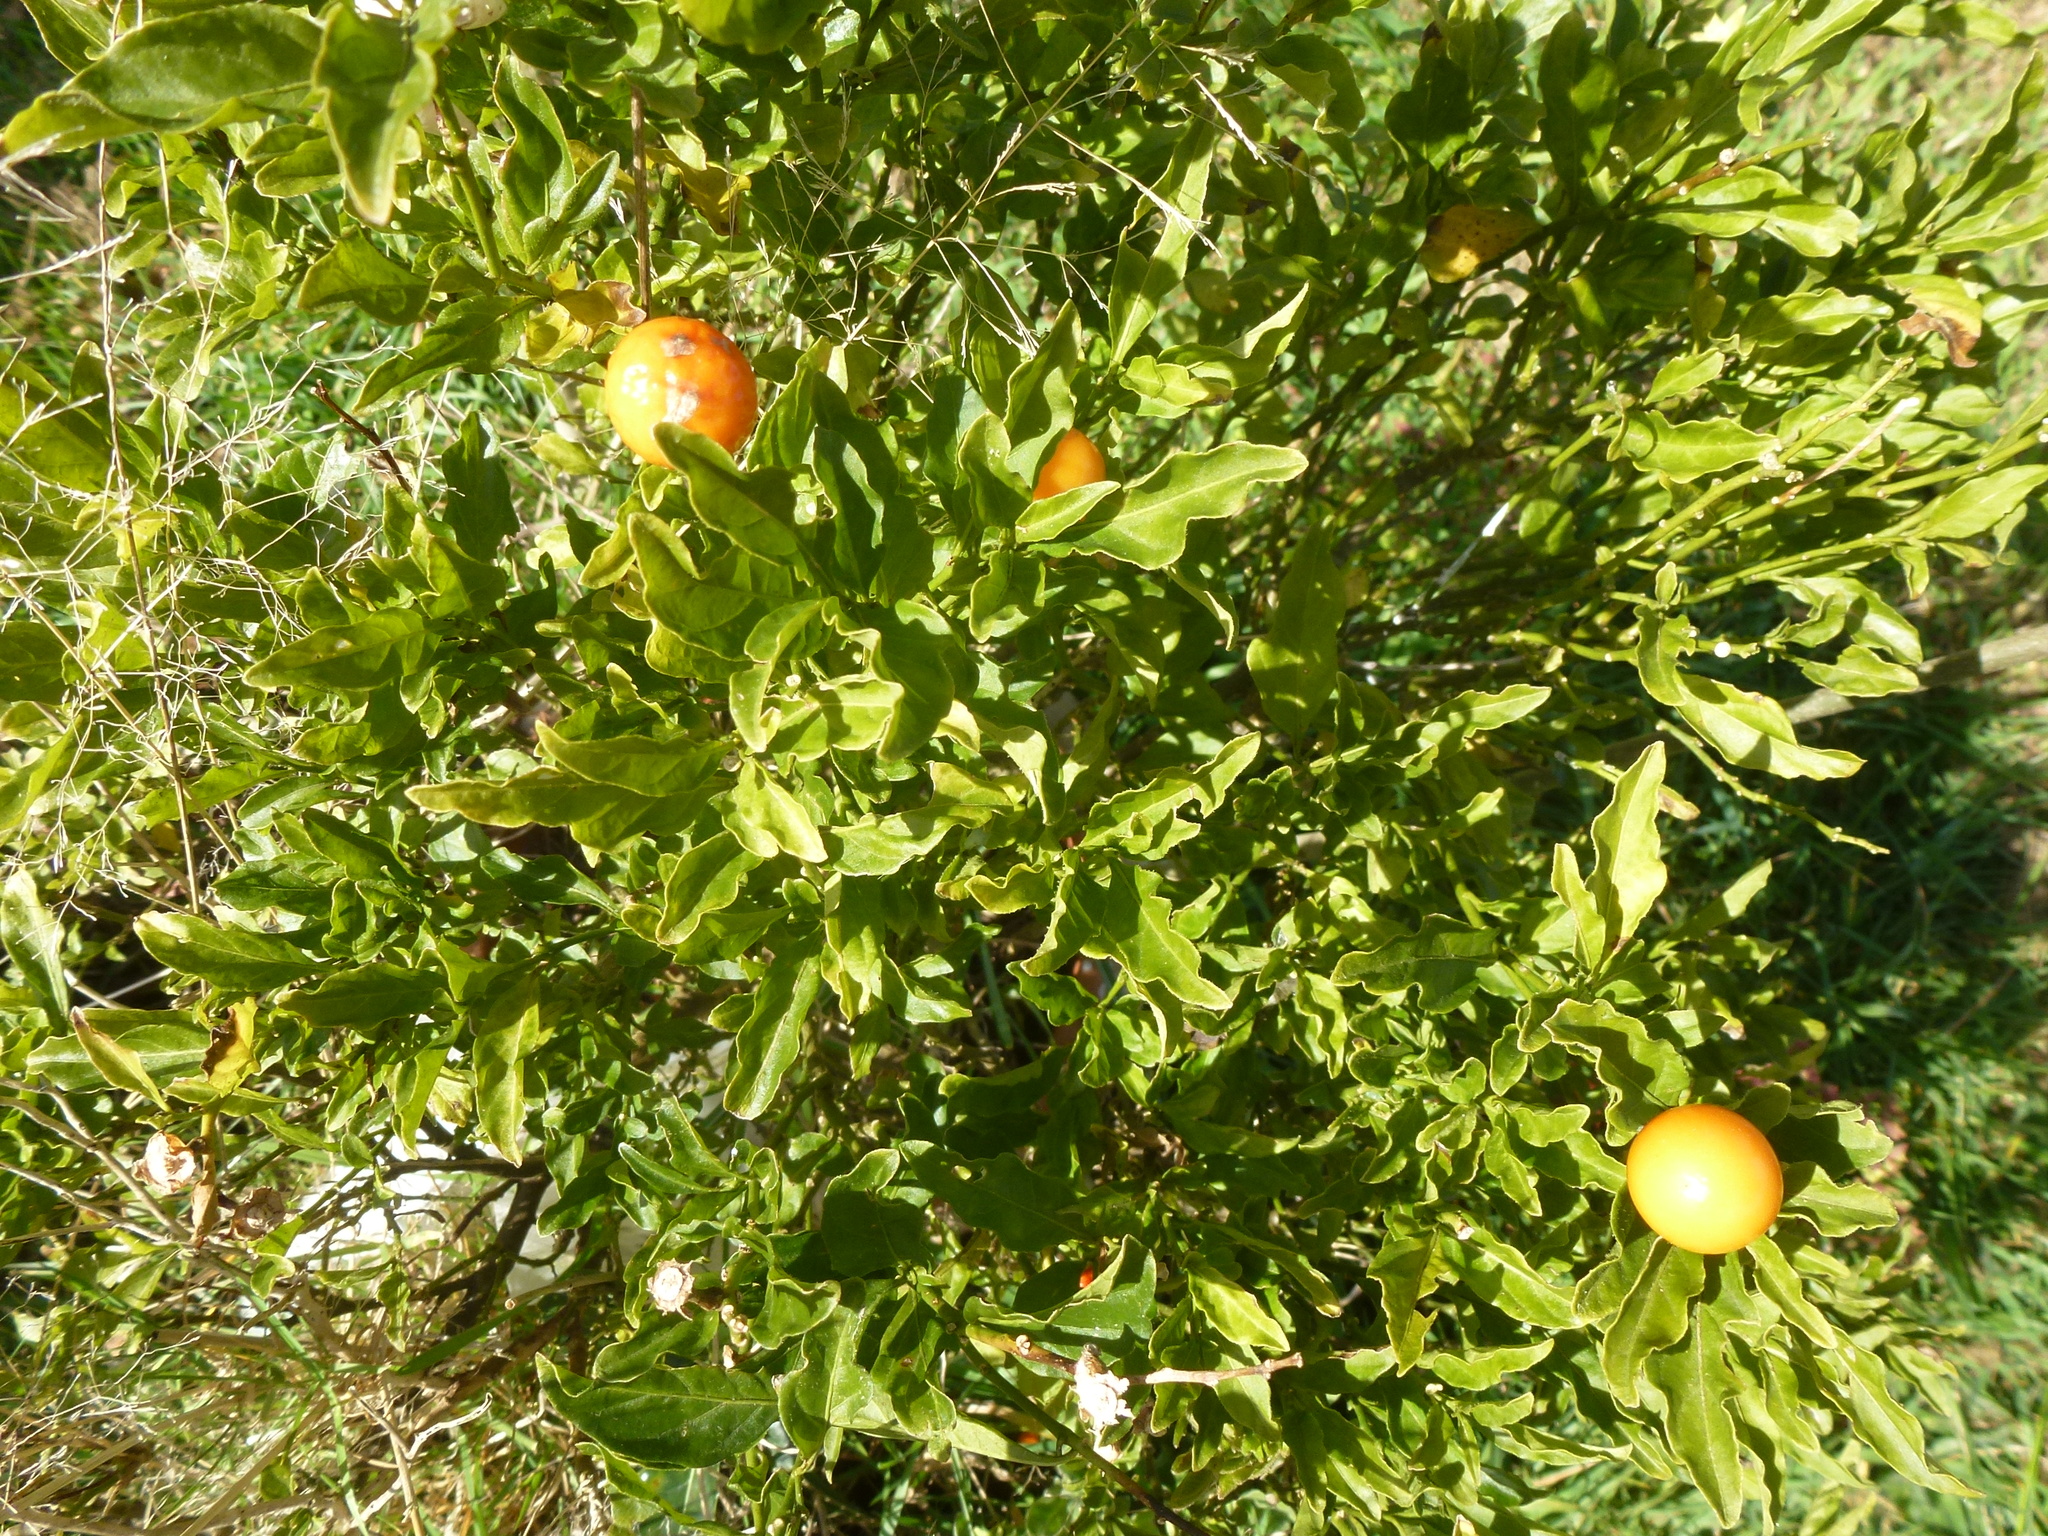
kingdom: Plantae
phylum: Tracheophyta
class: Magnoliopsida
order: Solanales
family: Solanaceae
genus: Solanum
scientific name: Solanum pseudocapsicum
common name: Jerusalem cherry
